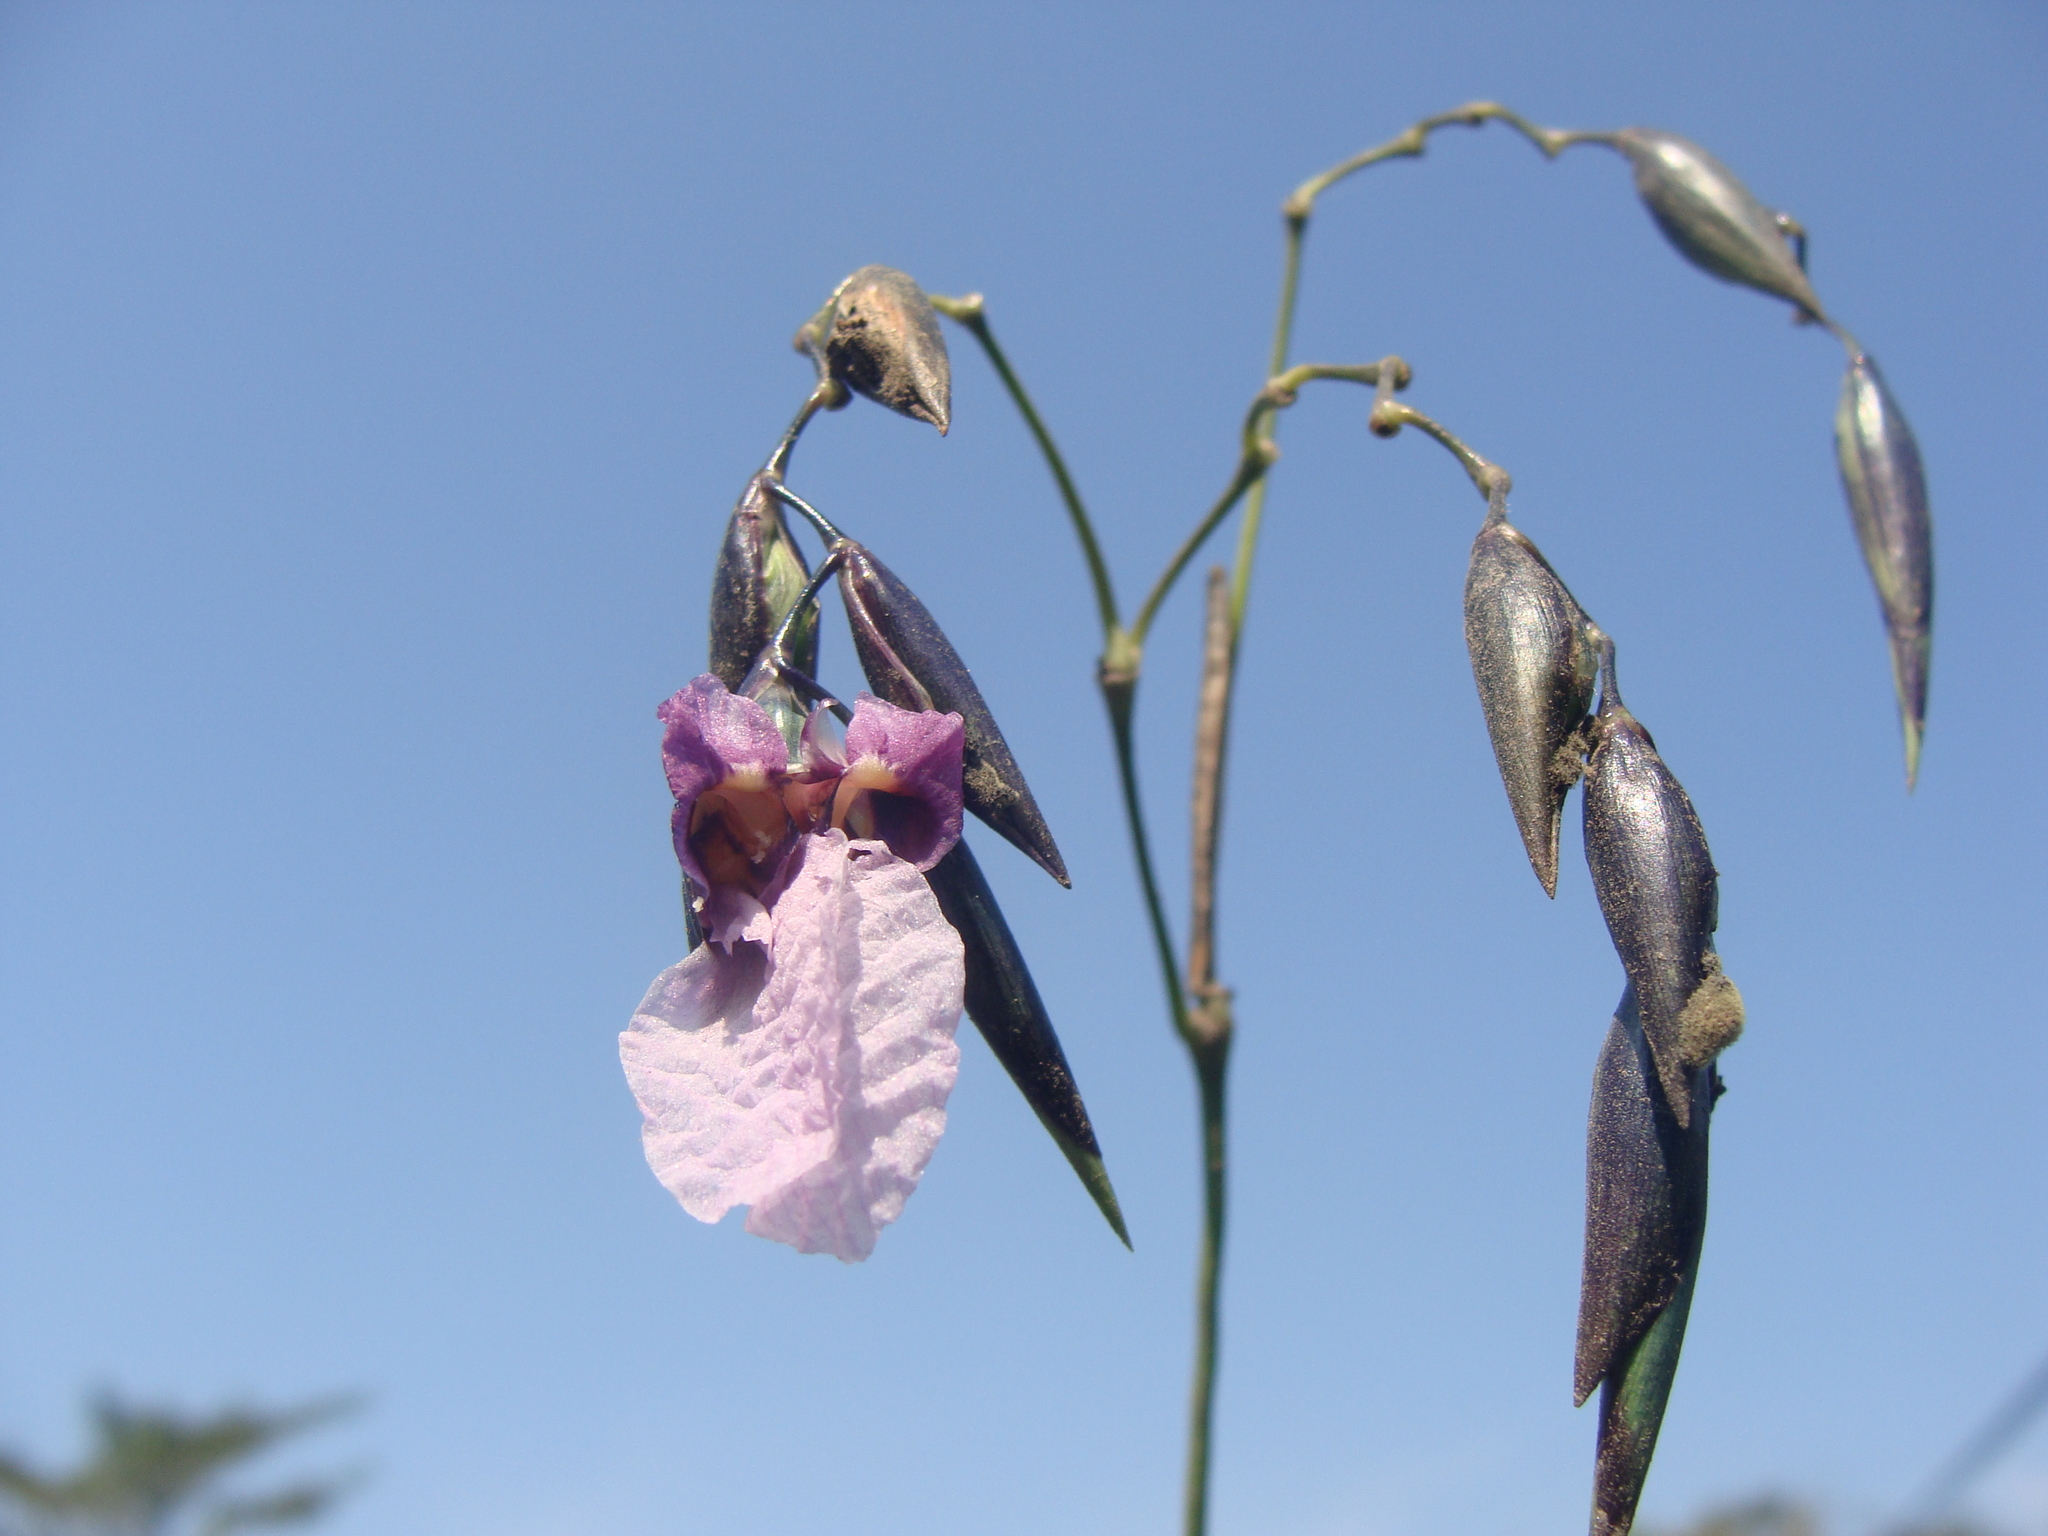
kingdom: Plantae
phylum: Tracheophyta
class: Liliopsida
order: Zingiberales
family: Marantaceae
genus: Thalia
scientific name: Thalia geniculata
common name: Arrowroot
